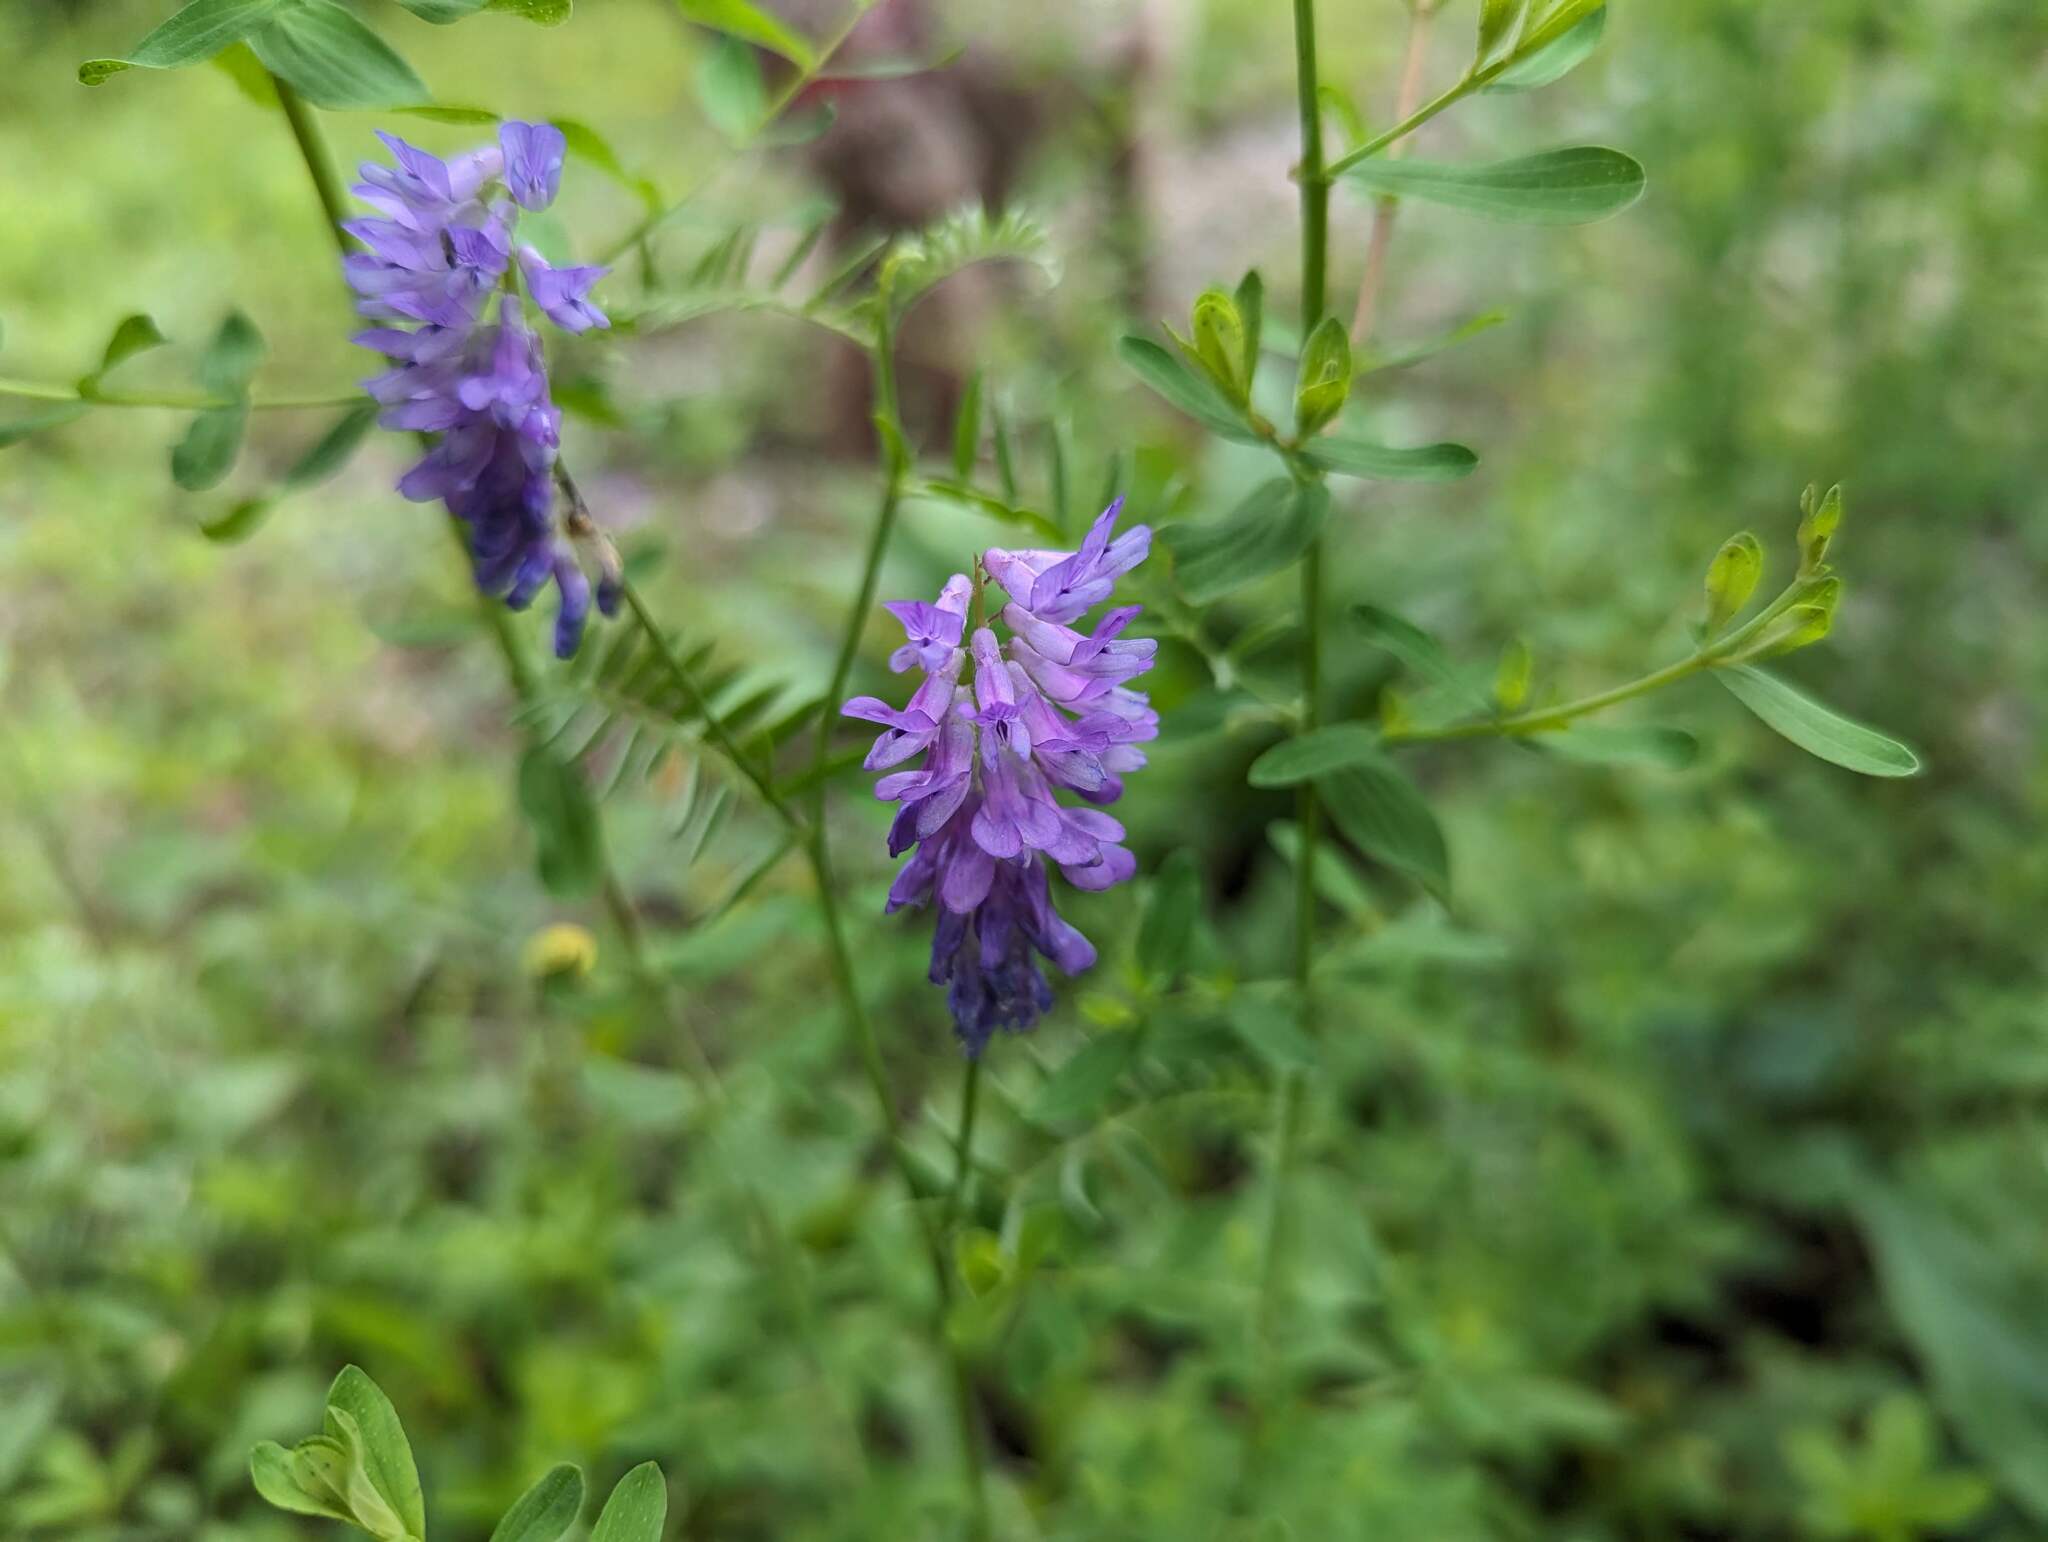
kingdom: Plantae
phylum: Tracheophyta
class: Magnoliopsida
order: Fabales
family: Fabaceae
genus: Vicia
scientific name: Vicia cracca
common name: Bird vetch
